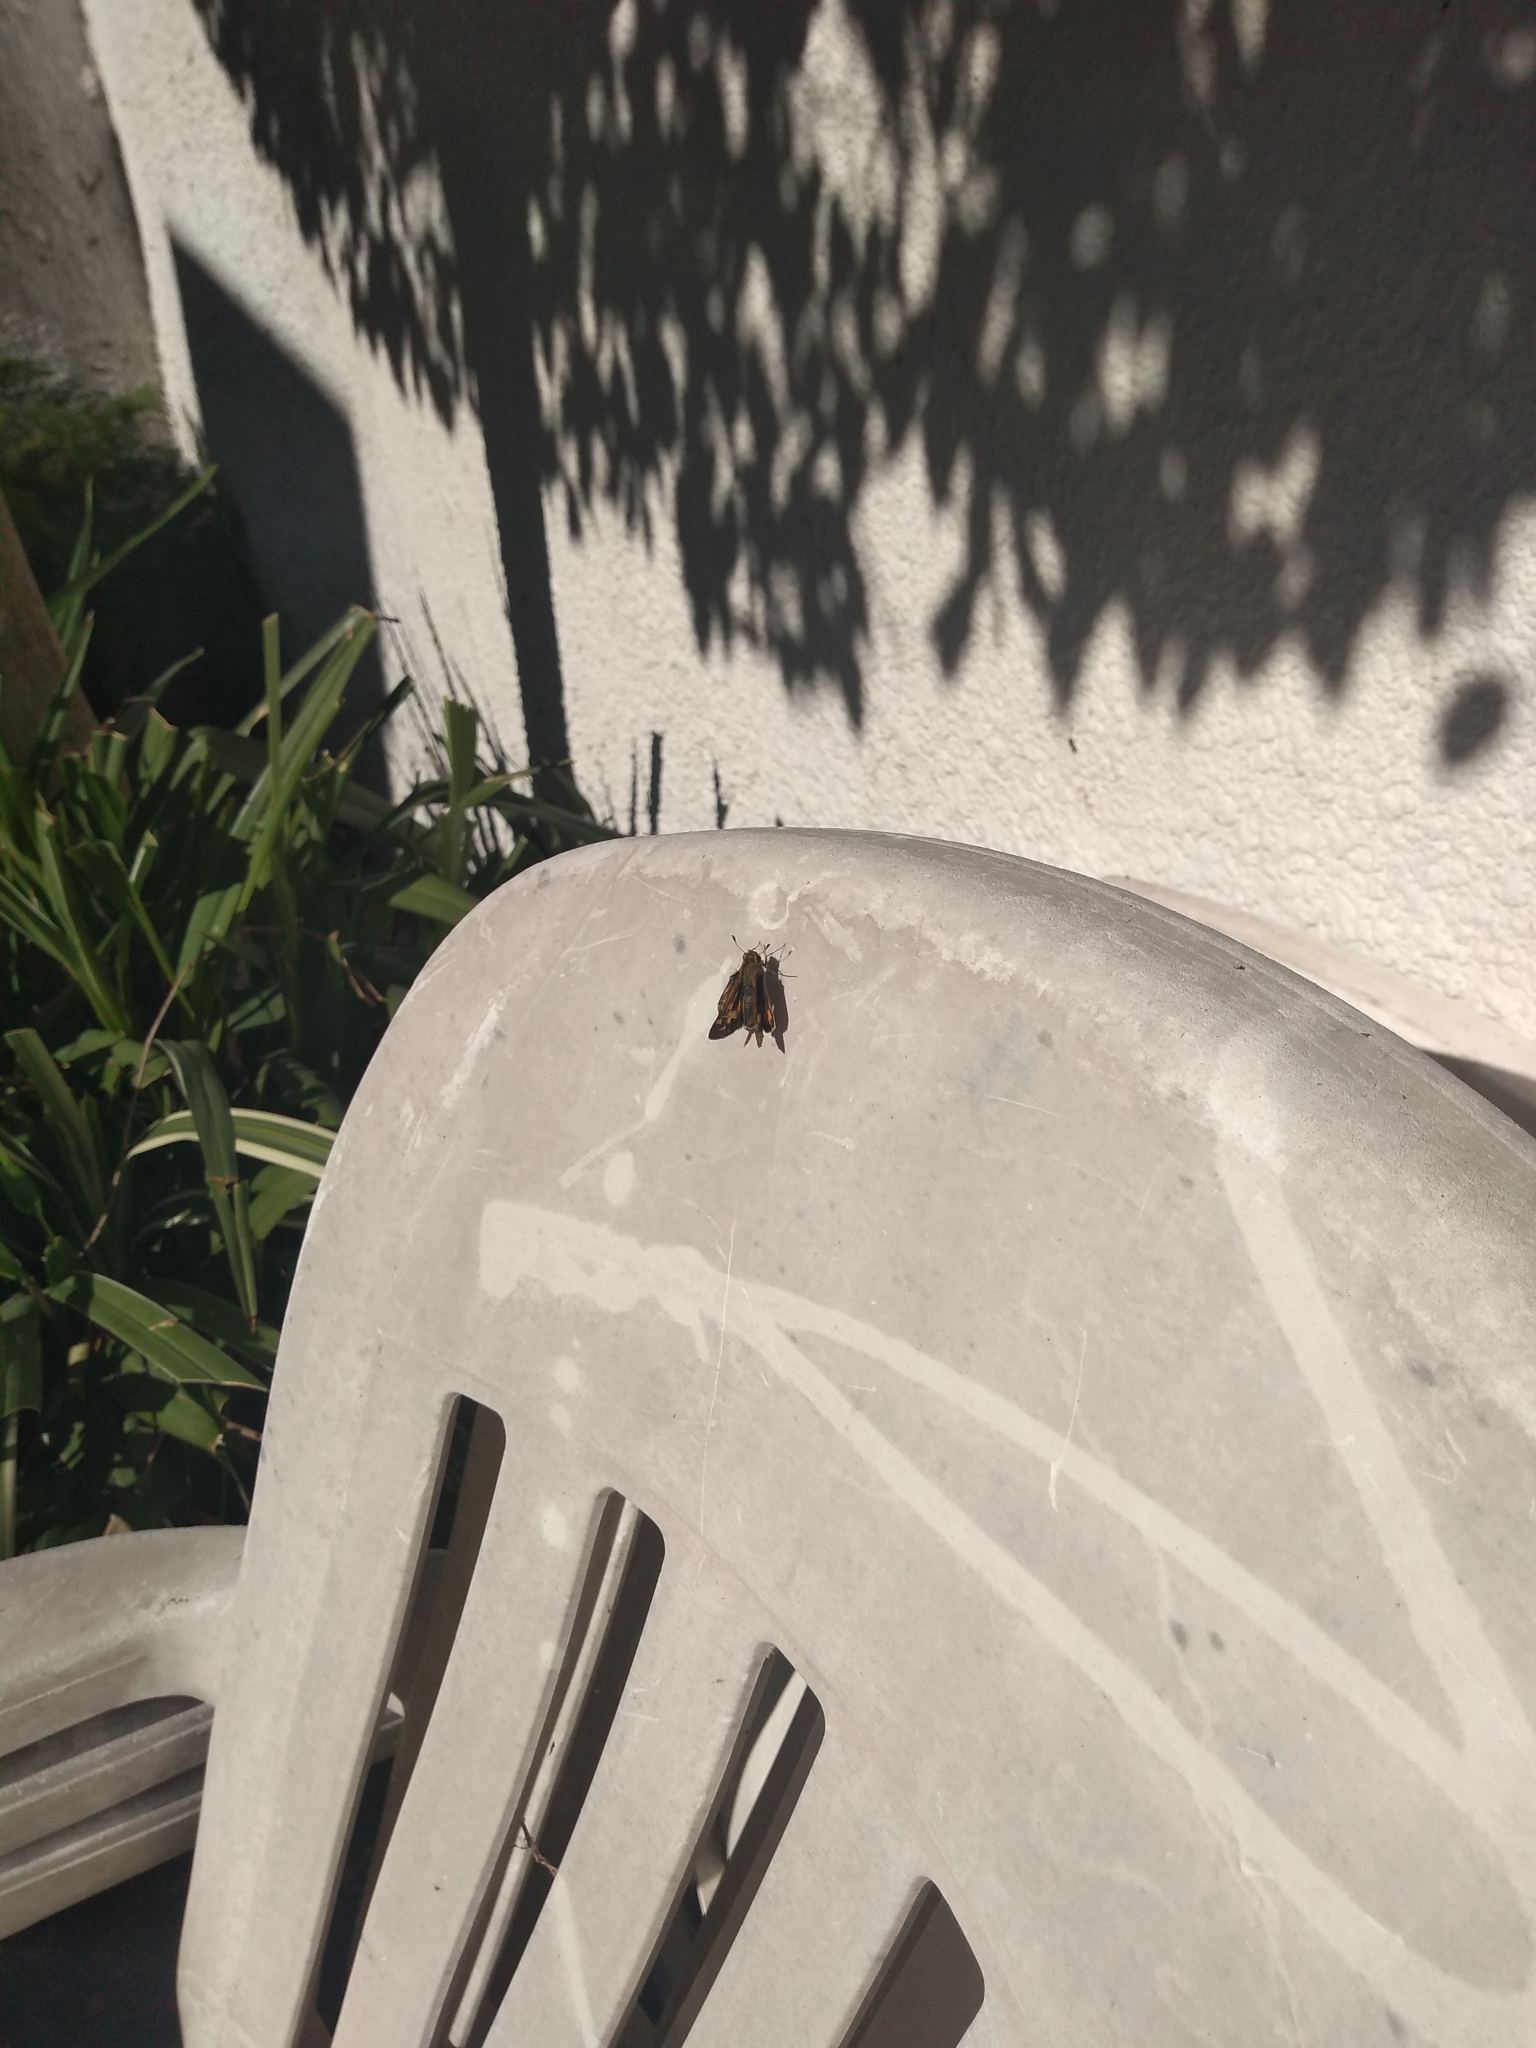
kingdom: Animalia
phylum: Arthropoda
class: Insecta
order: Lepidoptera
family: Hesperiidae
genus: Hylephila
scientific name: Hylephila phyleus
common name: Fiery skipper
